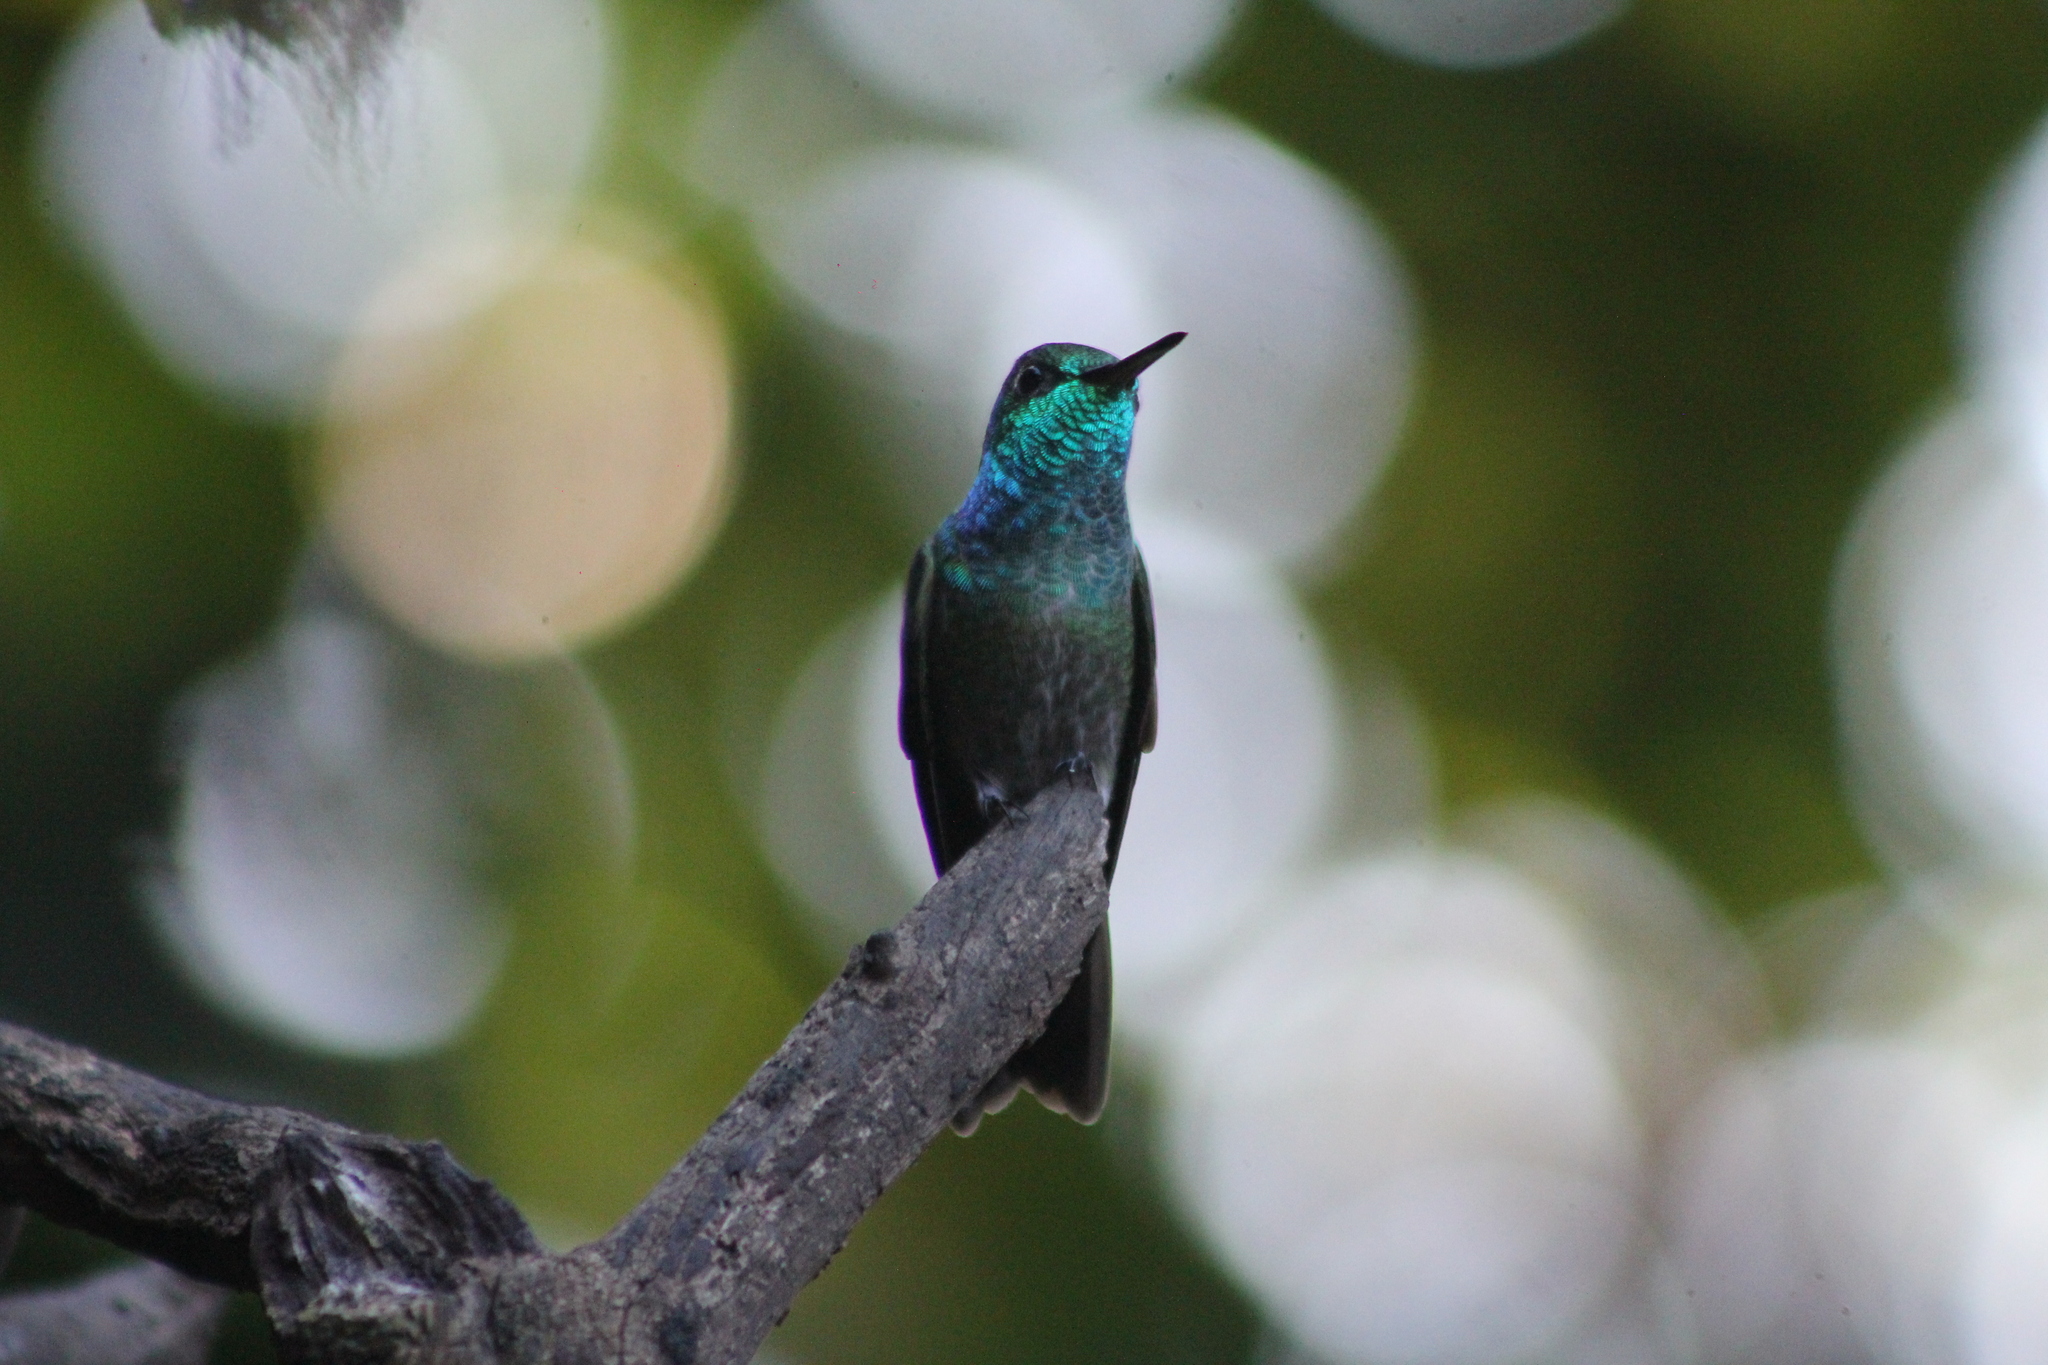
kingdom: Animalia
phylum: Chordata
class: Aves
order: Apodiformes
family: Trochilidae
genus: Chrysuronia
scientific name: Chrysuronia versicolor
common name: Versicolored emerald
